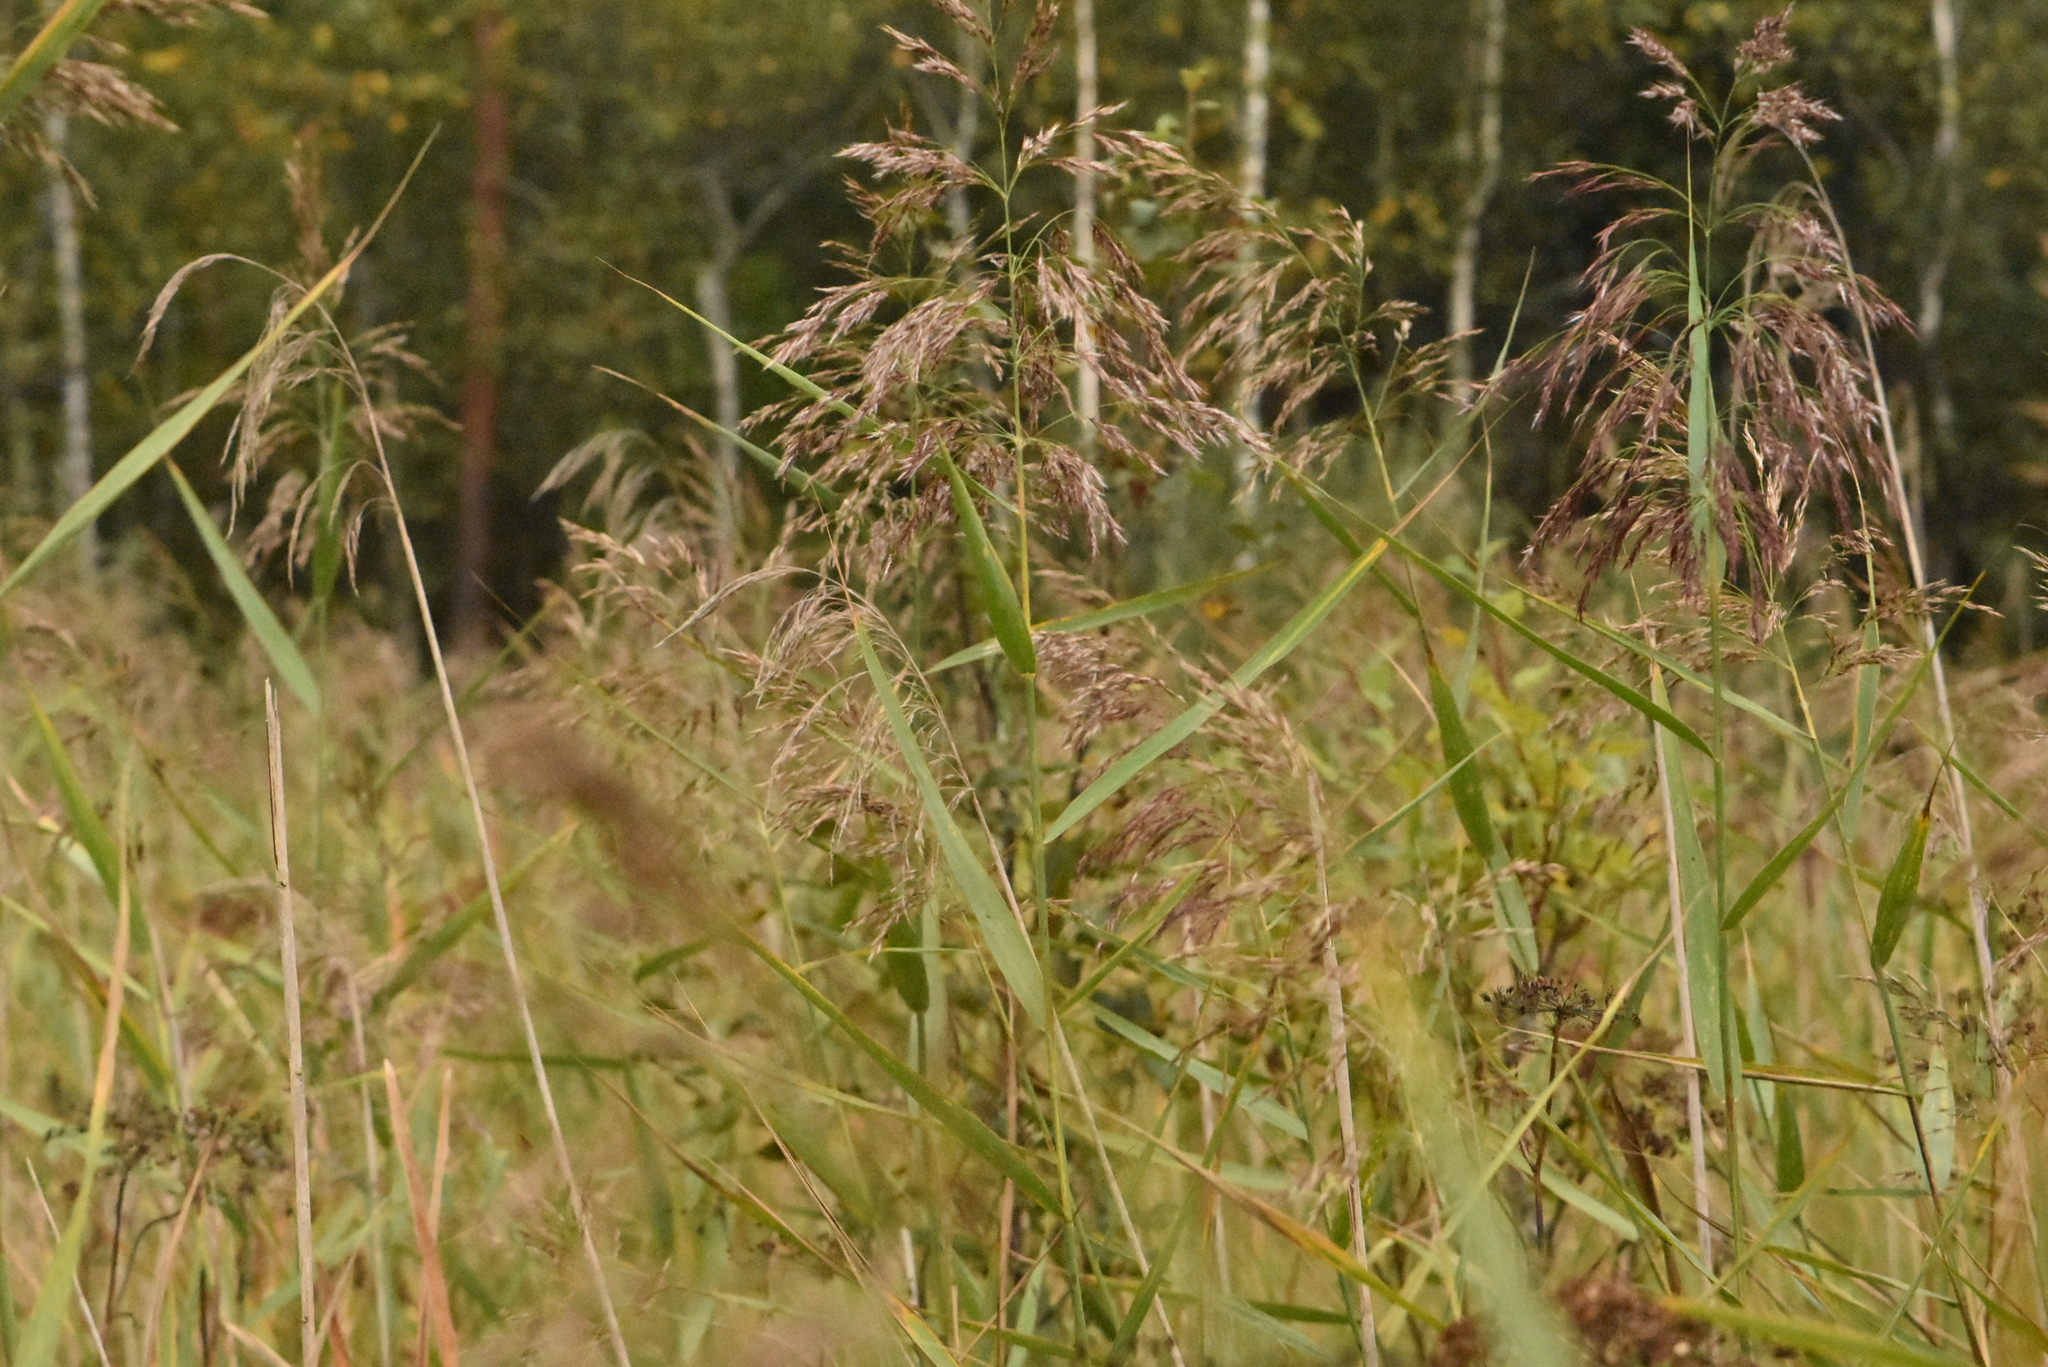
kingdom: Plantae
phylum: Tracheophyta
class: Liliopsida
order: Poales
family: Poaceae
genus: Phragmites
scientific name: Phragmites australis
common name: Common reed
